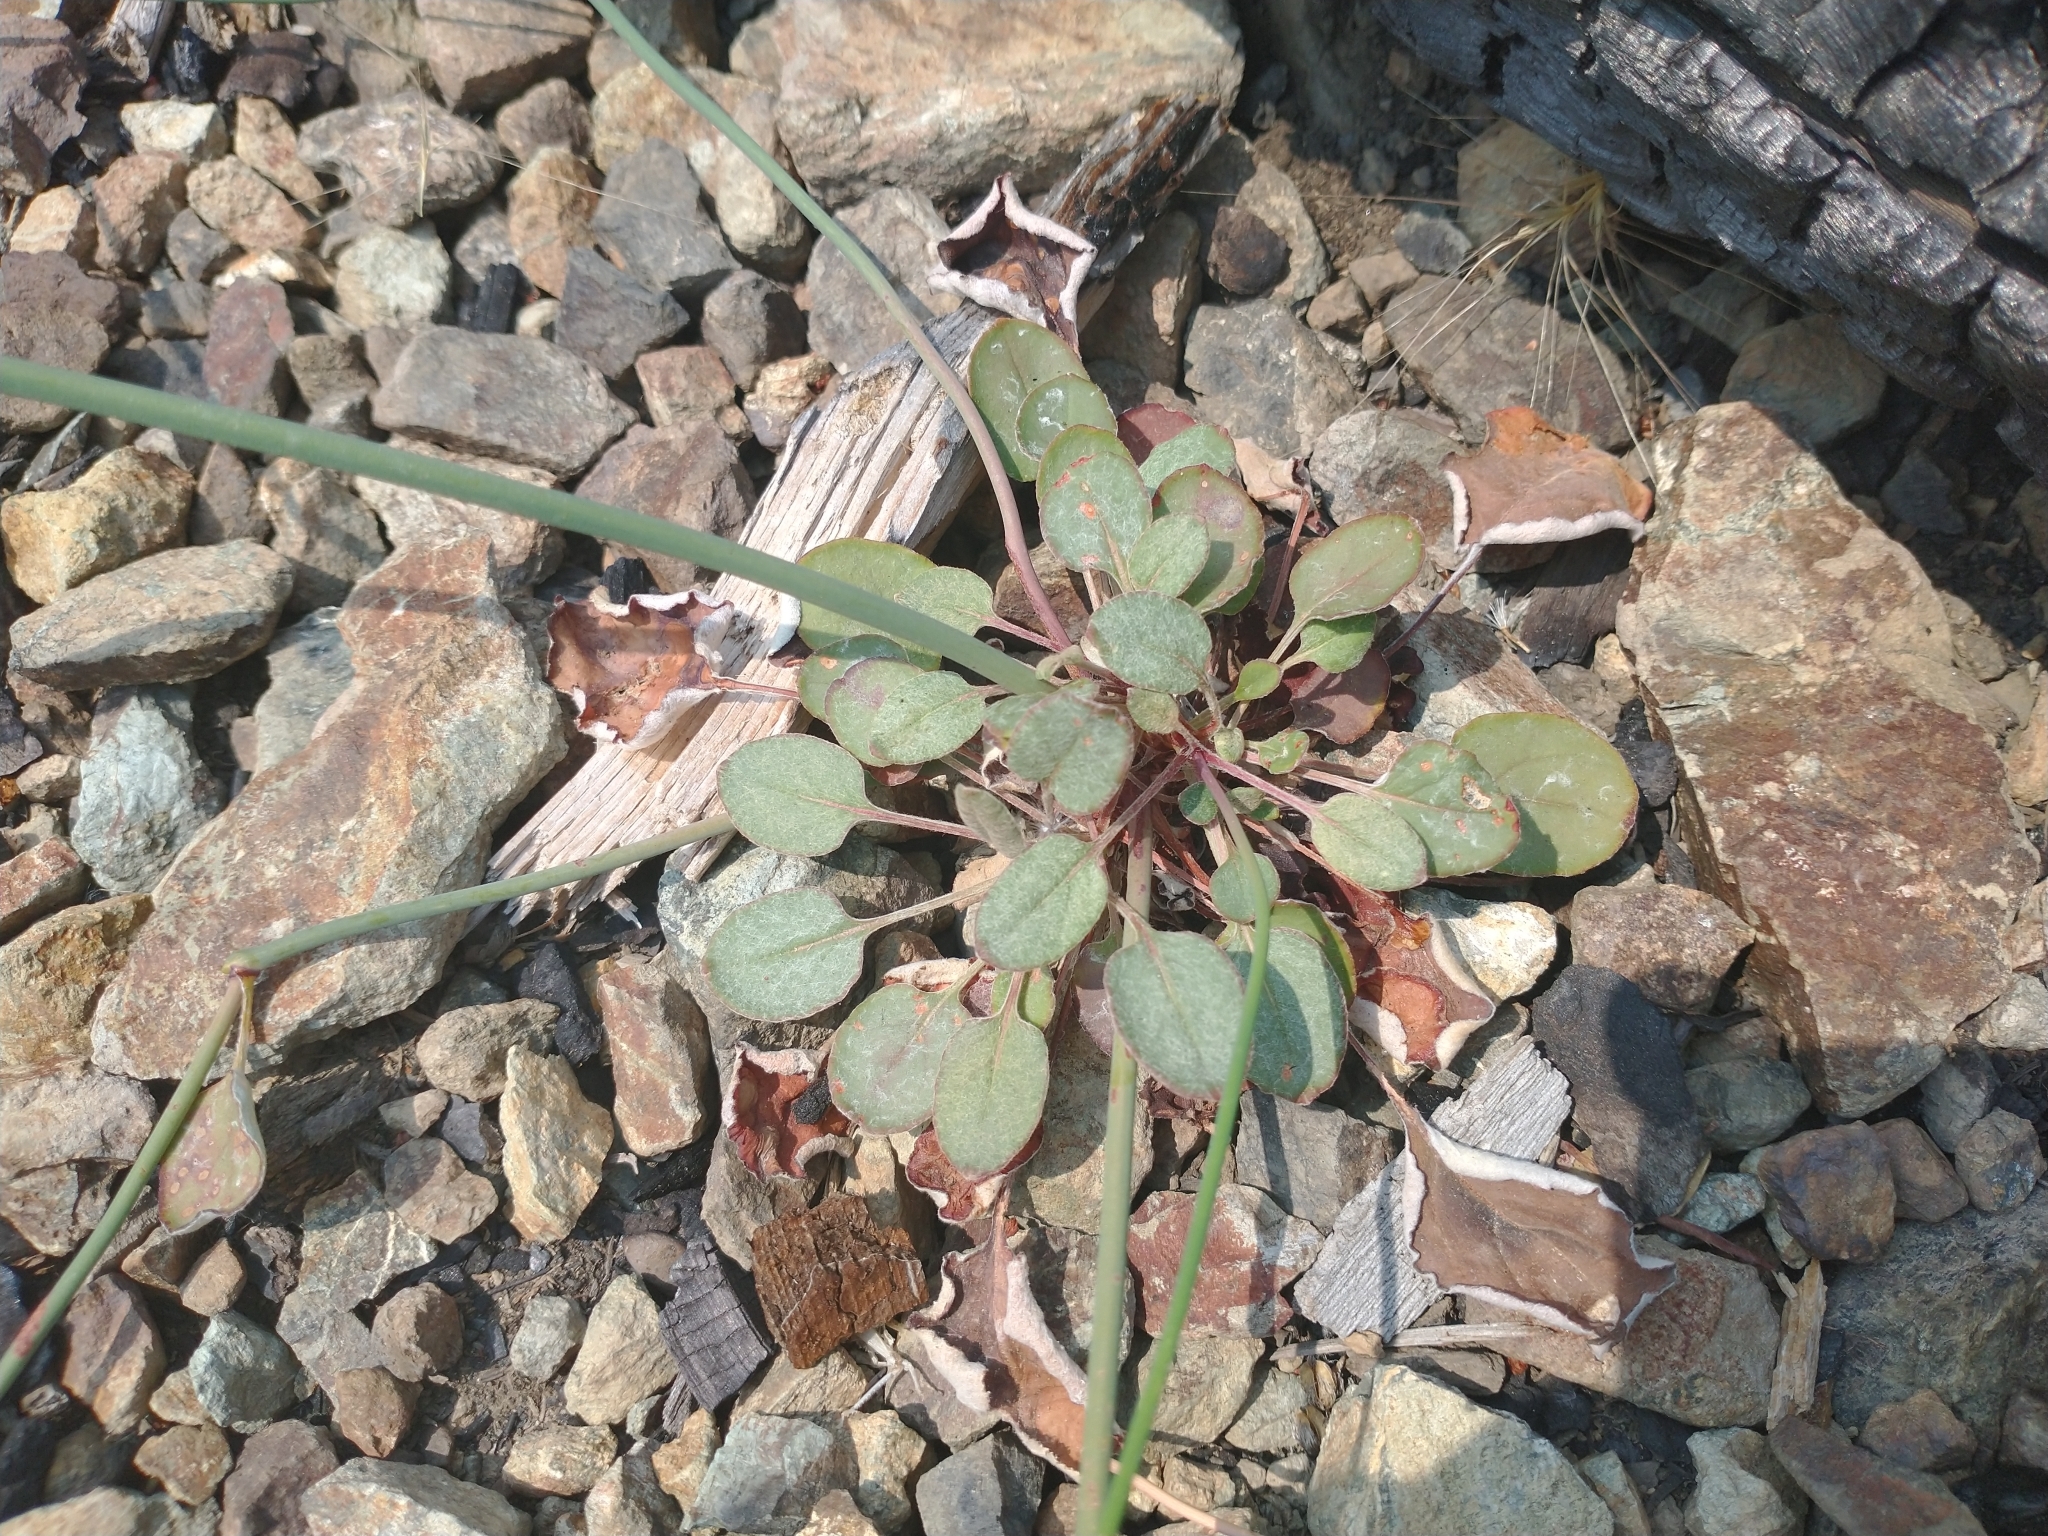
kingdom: Plantae
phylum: Tracheophyta
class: Magnoliopsida
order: Caryophyllales
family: Polygonaceae
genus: Eriogonum
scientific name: Eriogonum nudum
